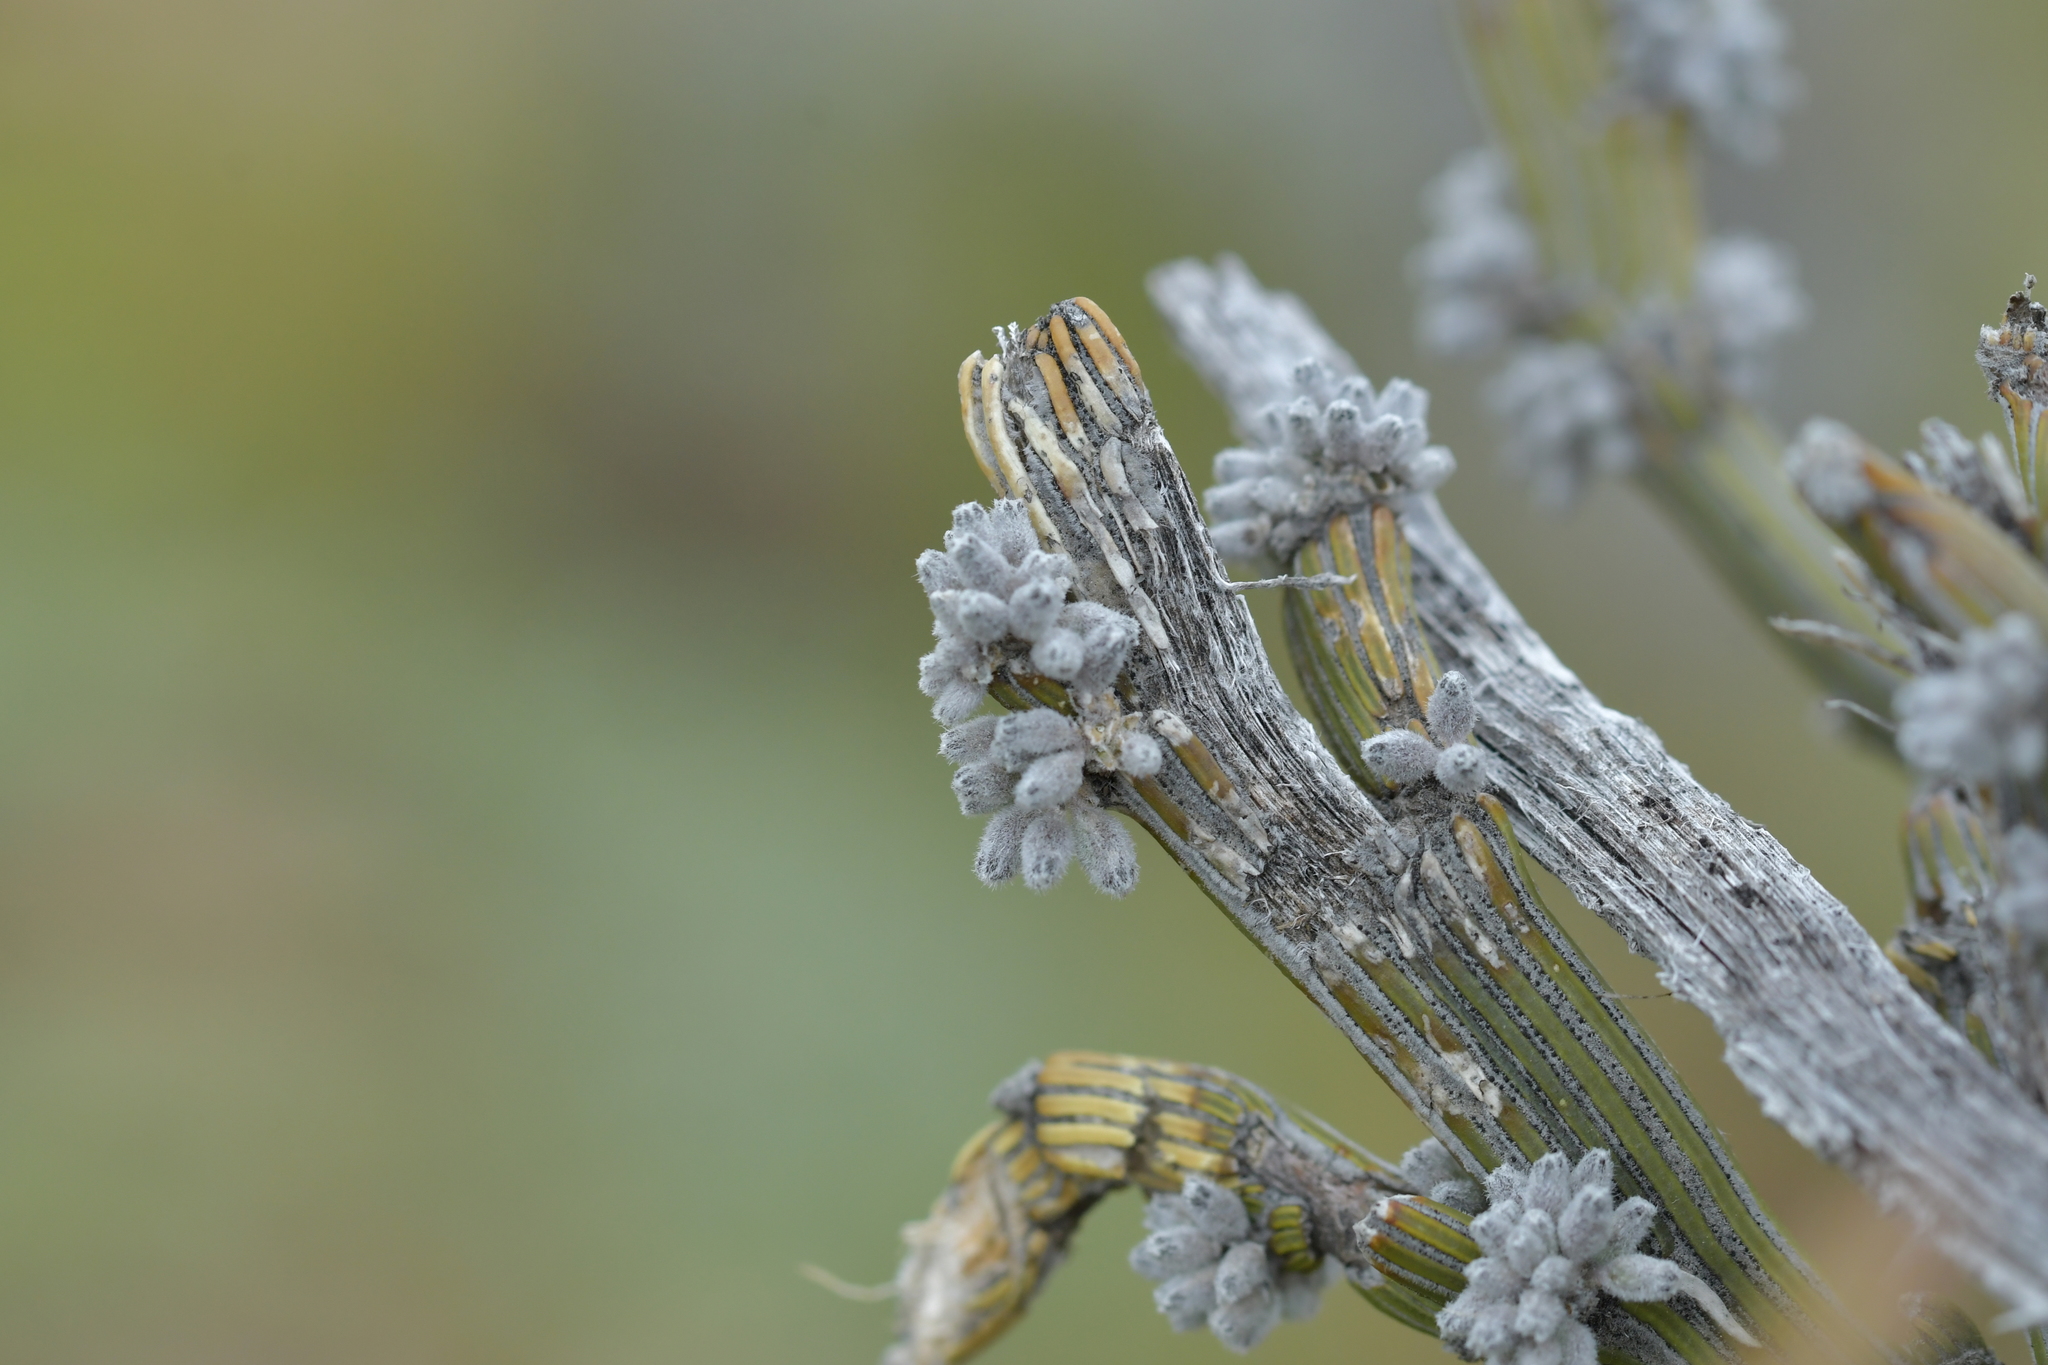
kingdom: Plantae
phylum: Tracheophyta
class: Magnoliopsida
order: Fabales
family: Fabaceae
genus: Carmichaelia
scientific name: Carmichaelia crassicaulis
